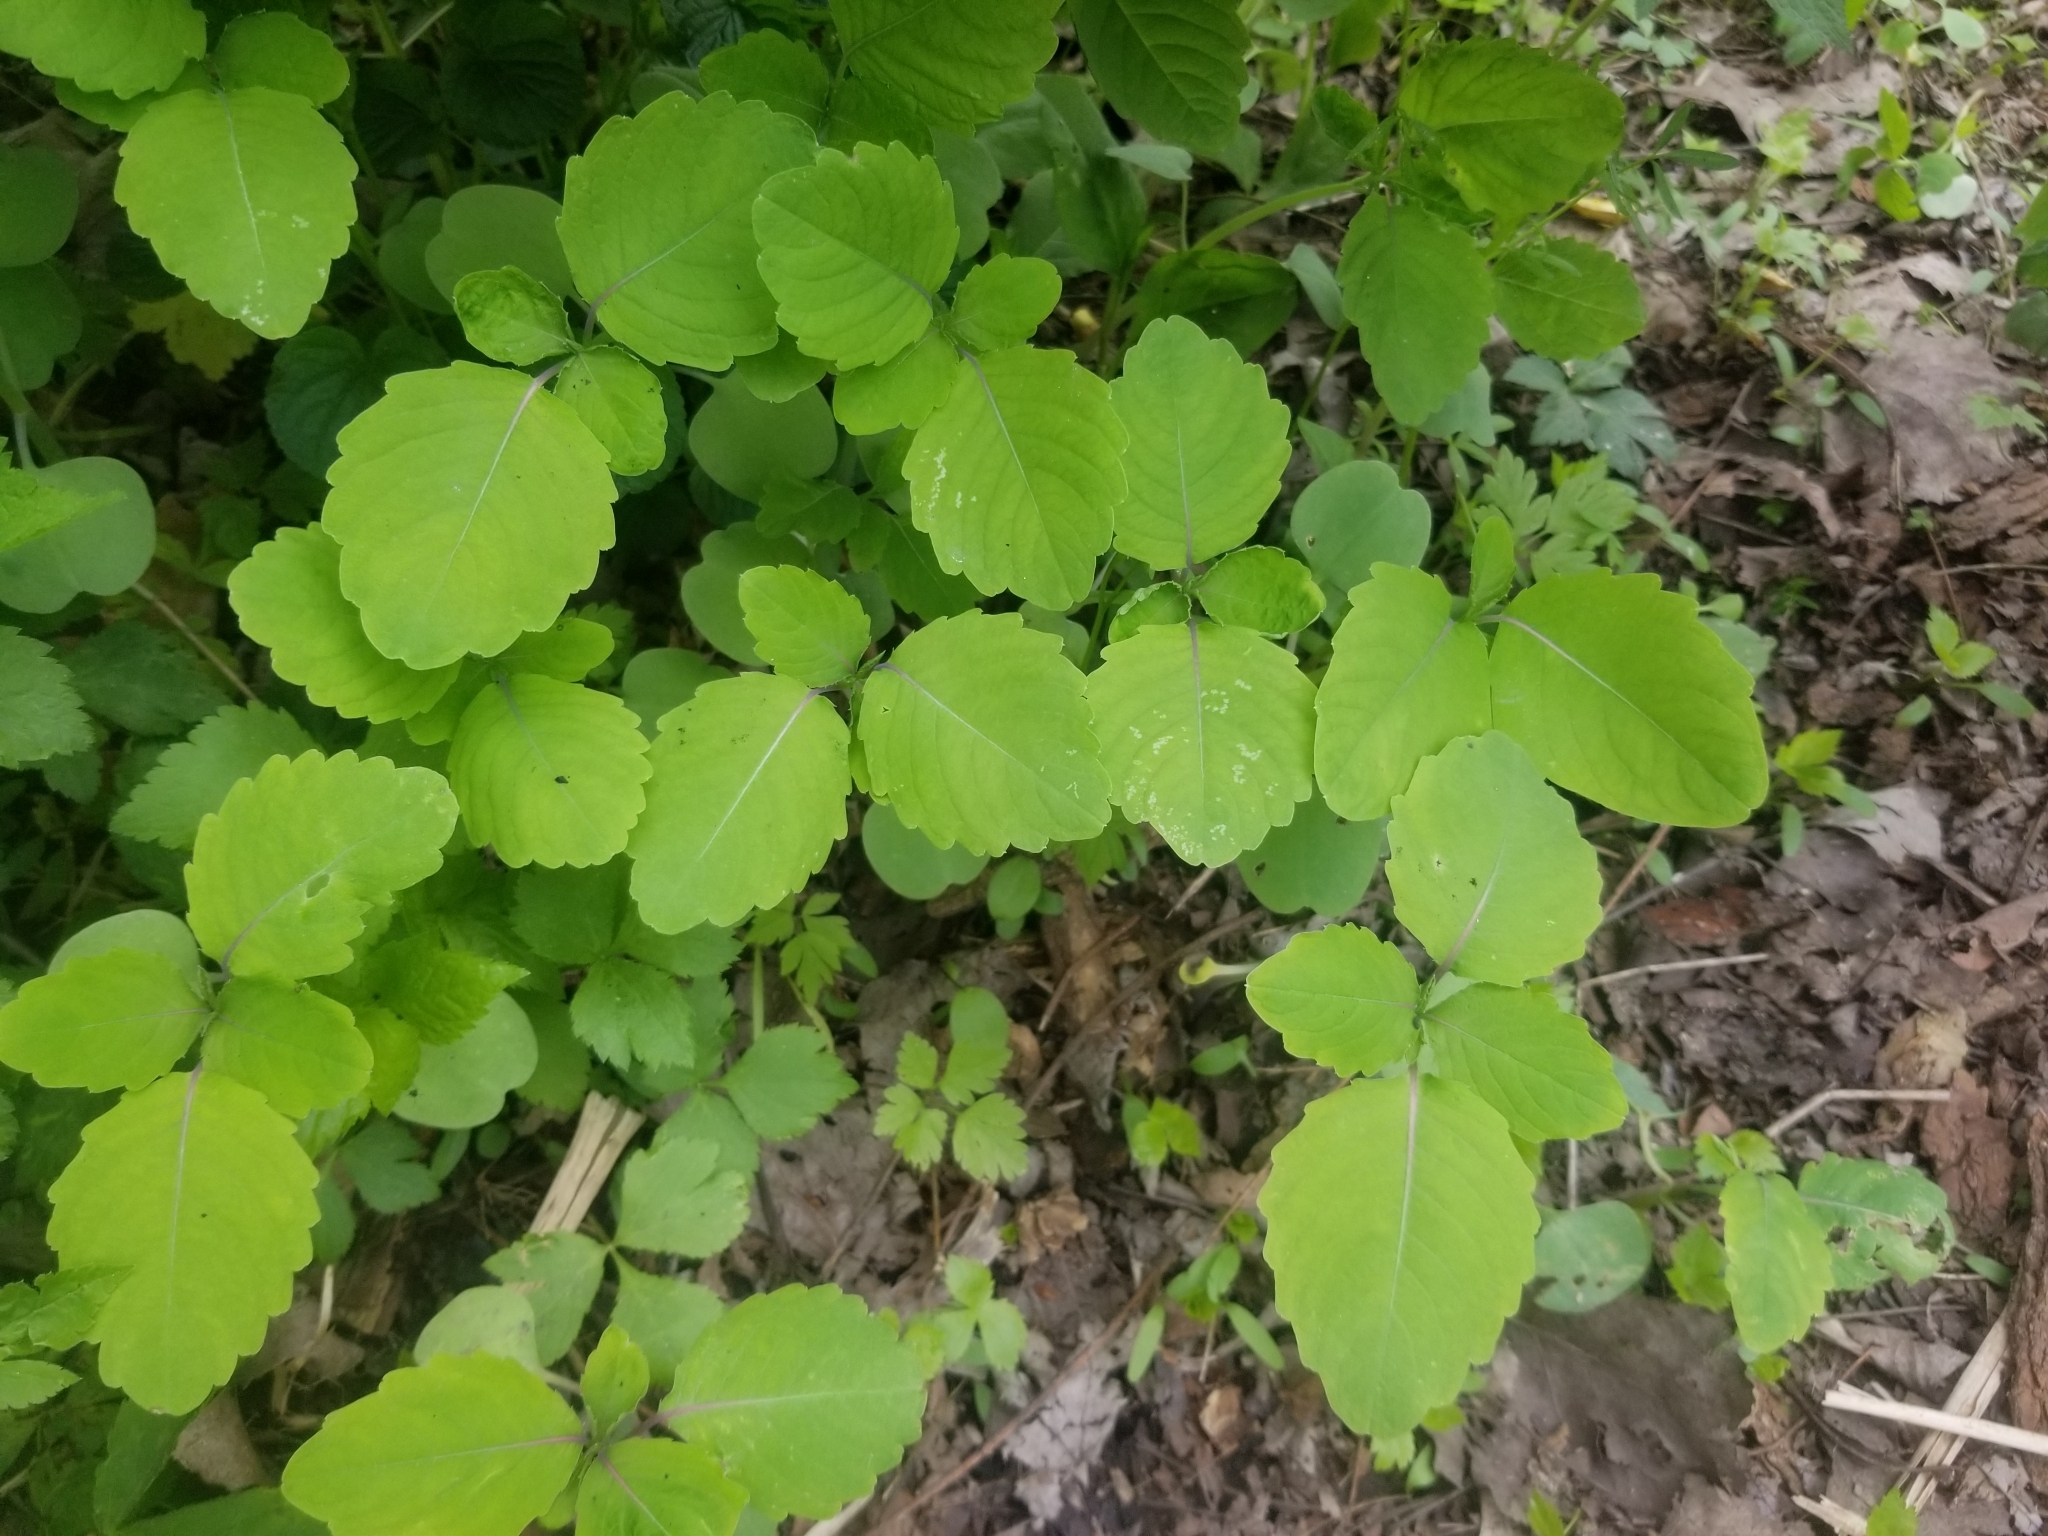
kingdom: Plantae
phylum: Tracheophyta
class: Magnoliopsida
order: Ericales
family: Balsaminaceae
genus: Impatiens
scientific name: Impatiens capensis
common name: Orange balsam
